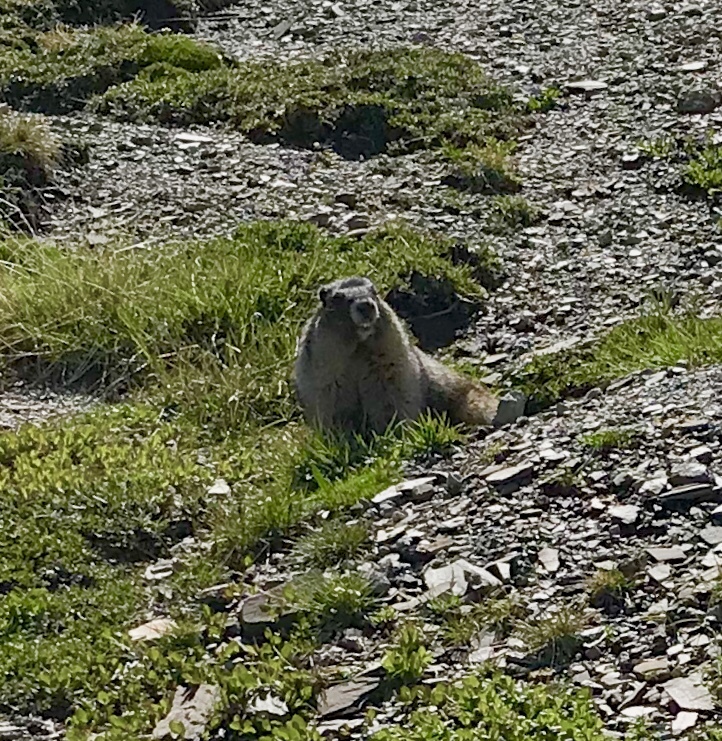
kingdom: Animalia
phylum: Chordata
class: Mammalia
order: Rodentia
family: Sciuridae
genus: Marmota
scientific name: Marmota caligata
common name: Hoary marmot
